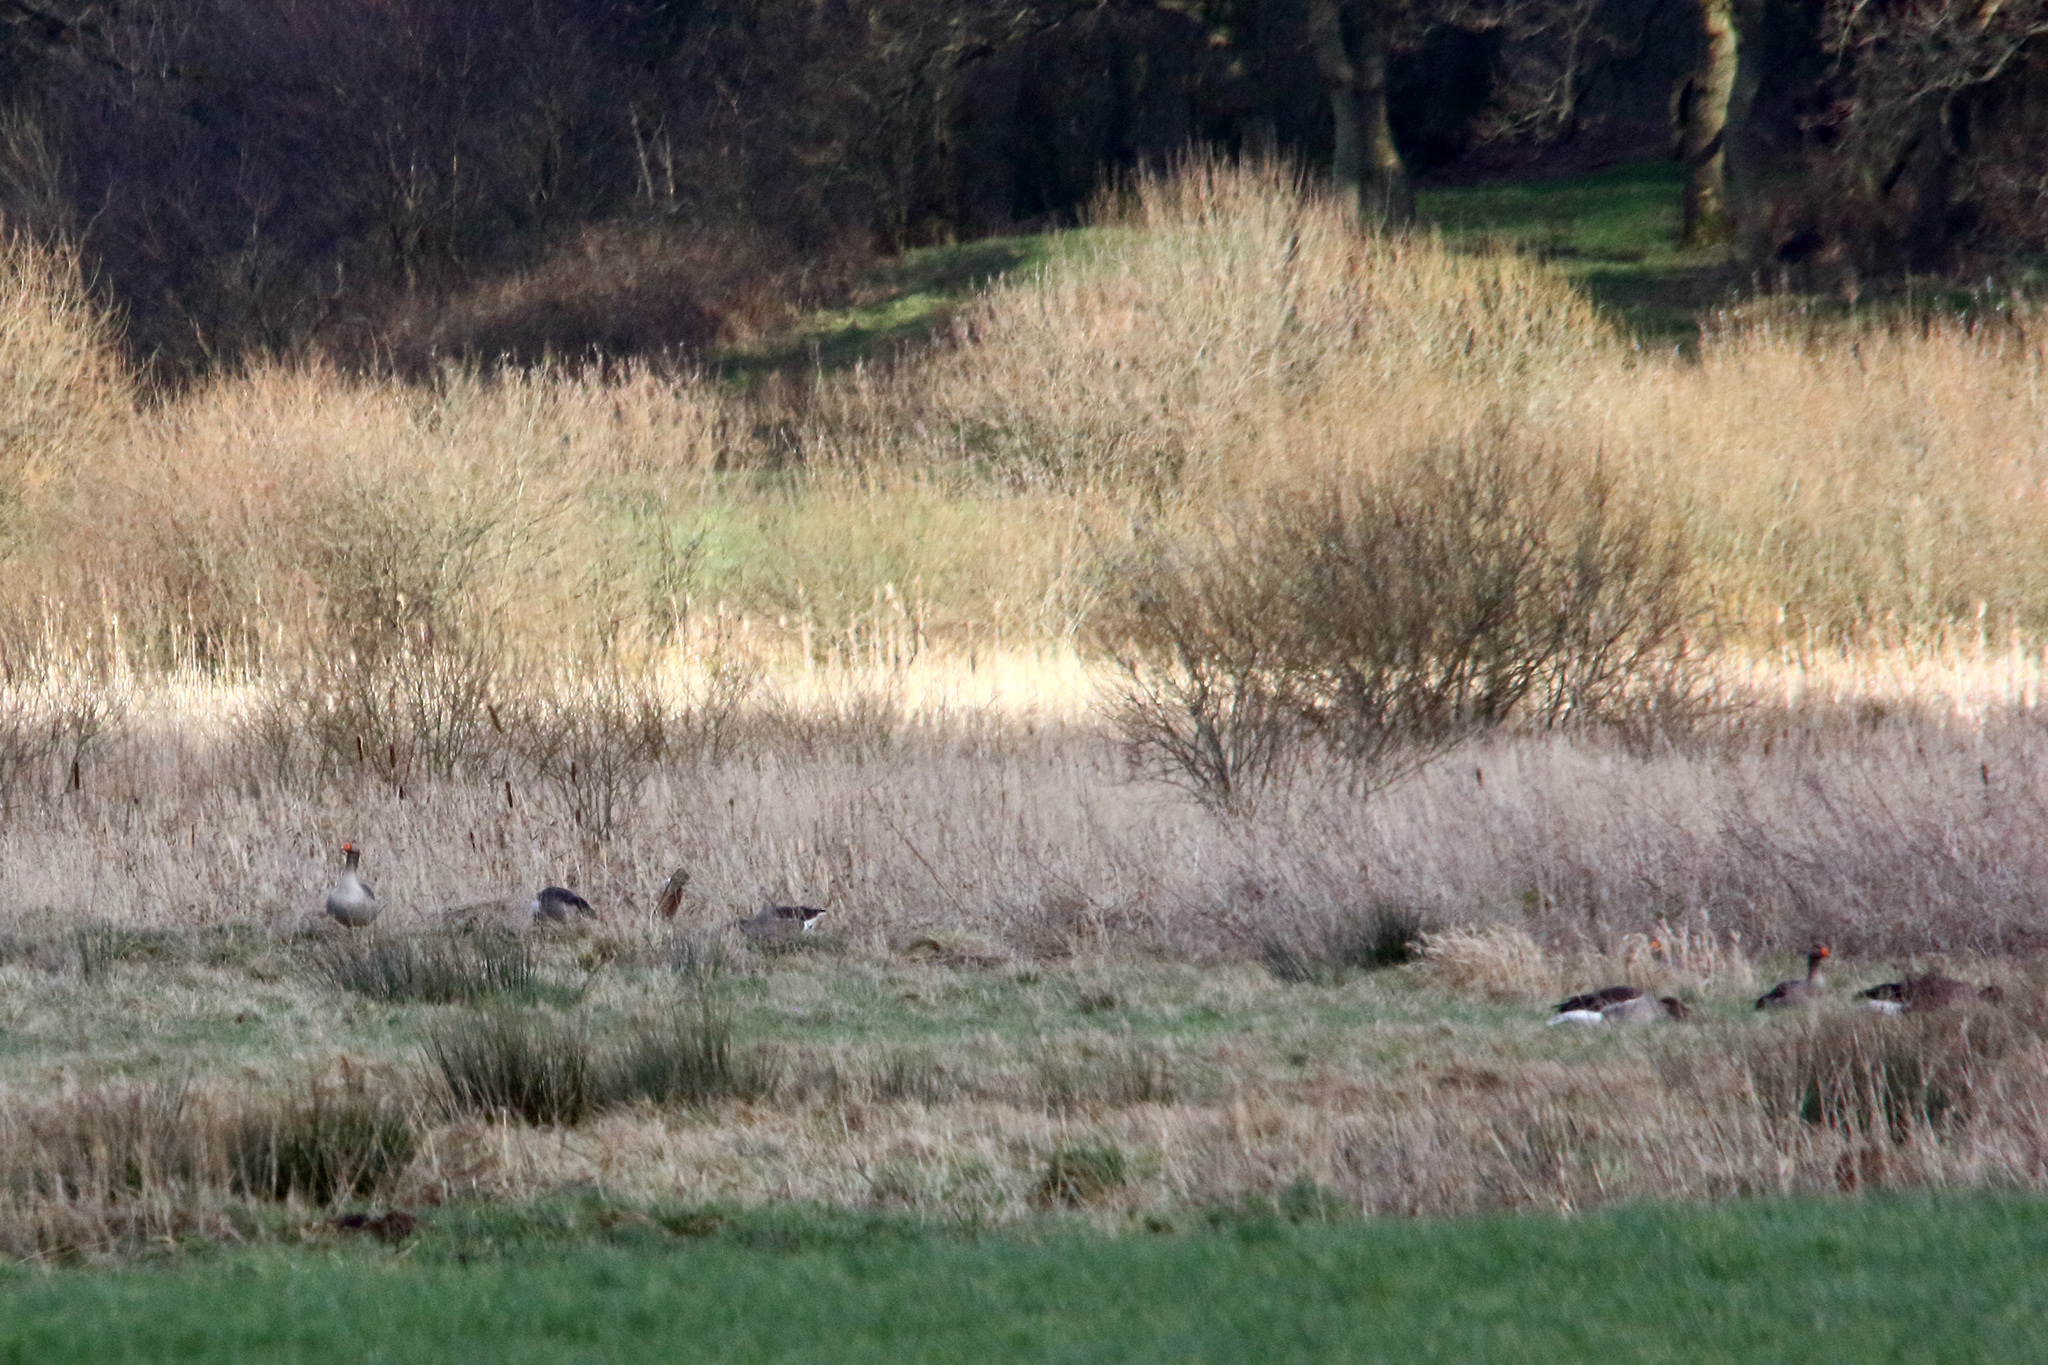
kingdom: Animalia
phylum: Chordata
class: Aves
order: Anseriformes
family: Anatidae
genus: Anser
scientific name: Anser anser
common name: Greylag goose
